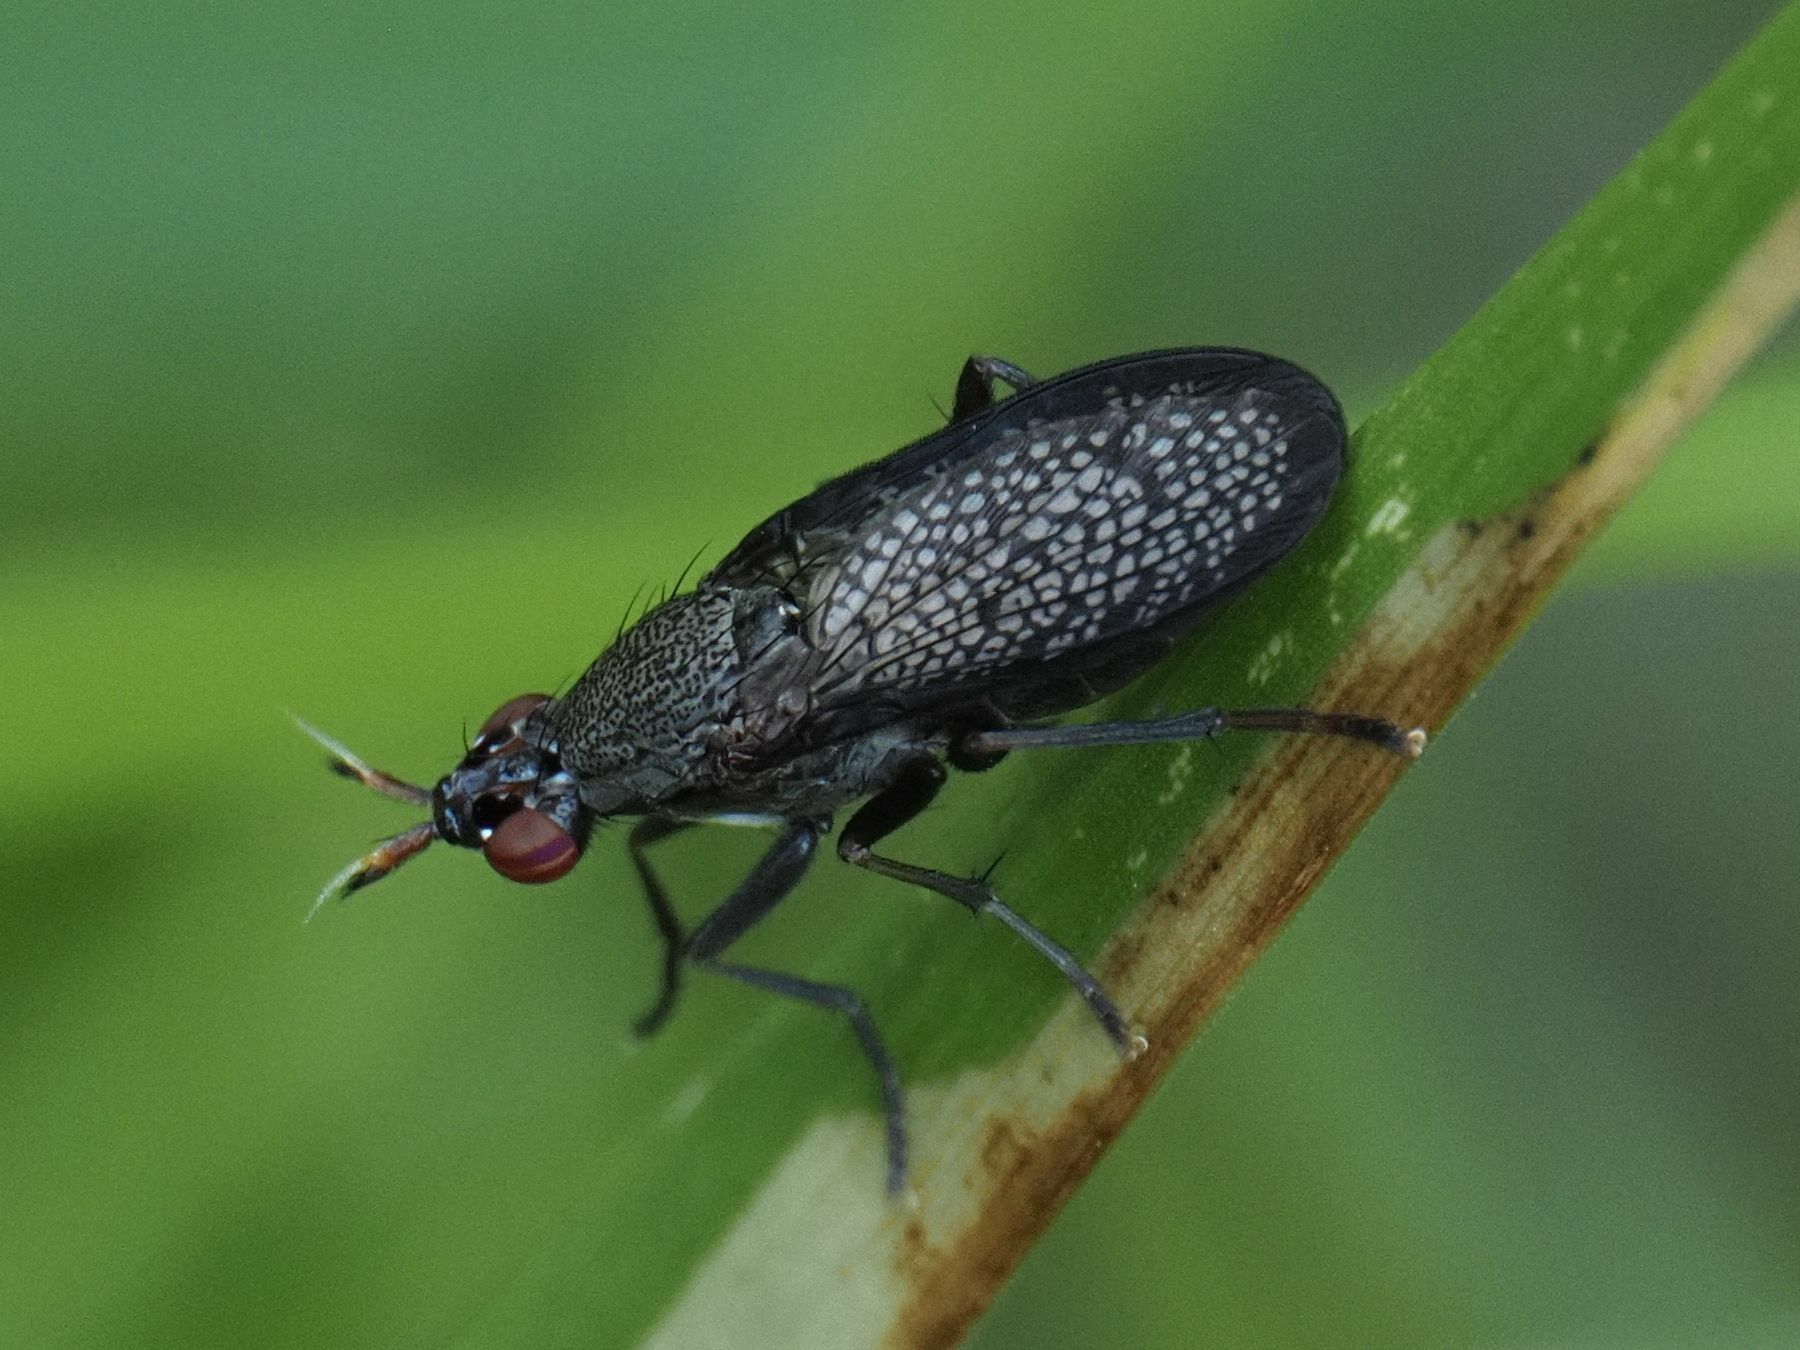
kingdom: Animalia
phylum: Arthropoda
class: Insecta
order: Diptera
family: Sciomyzidae
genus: Coremacera
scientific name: Coremacera marginata
